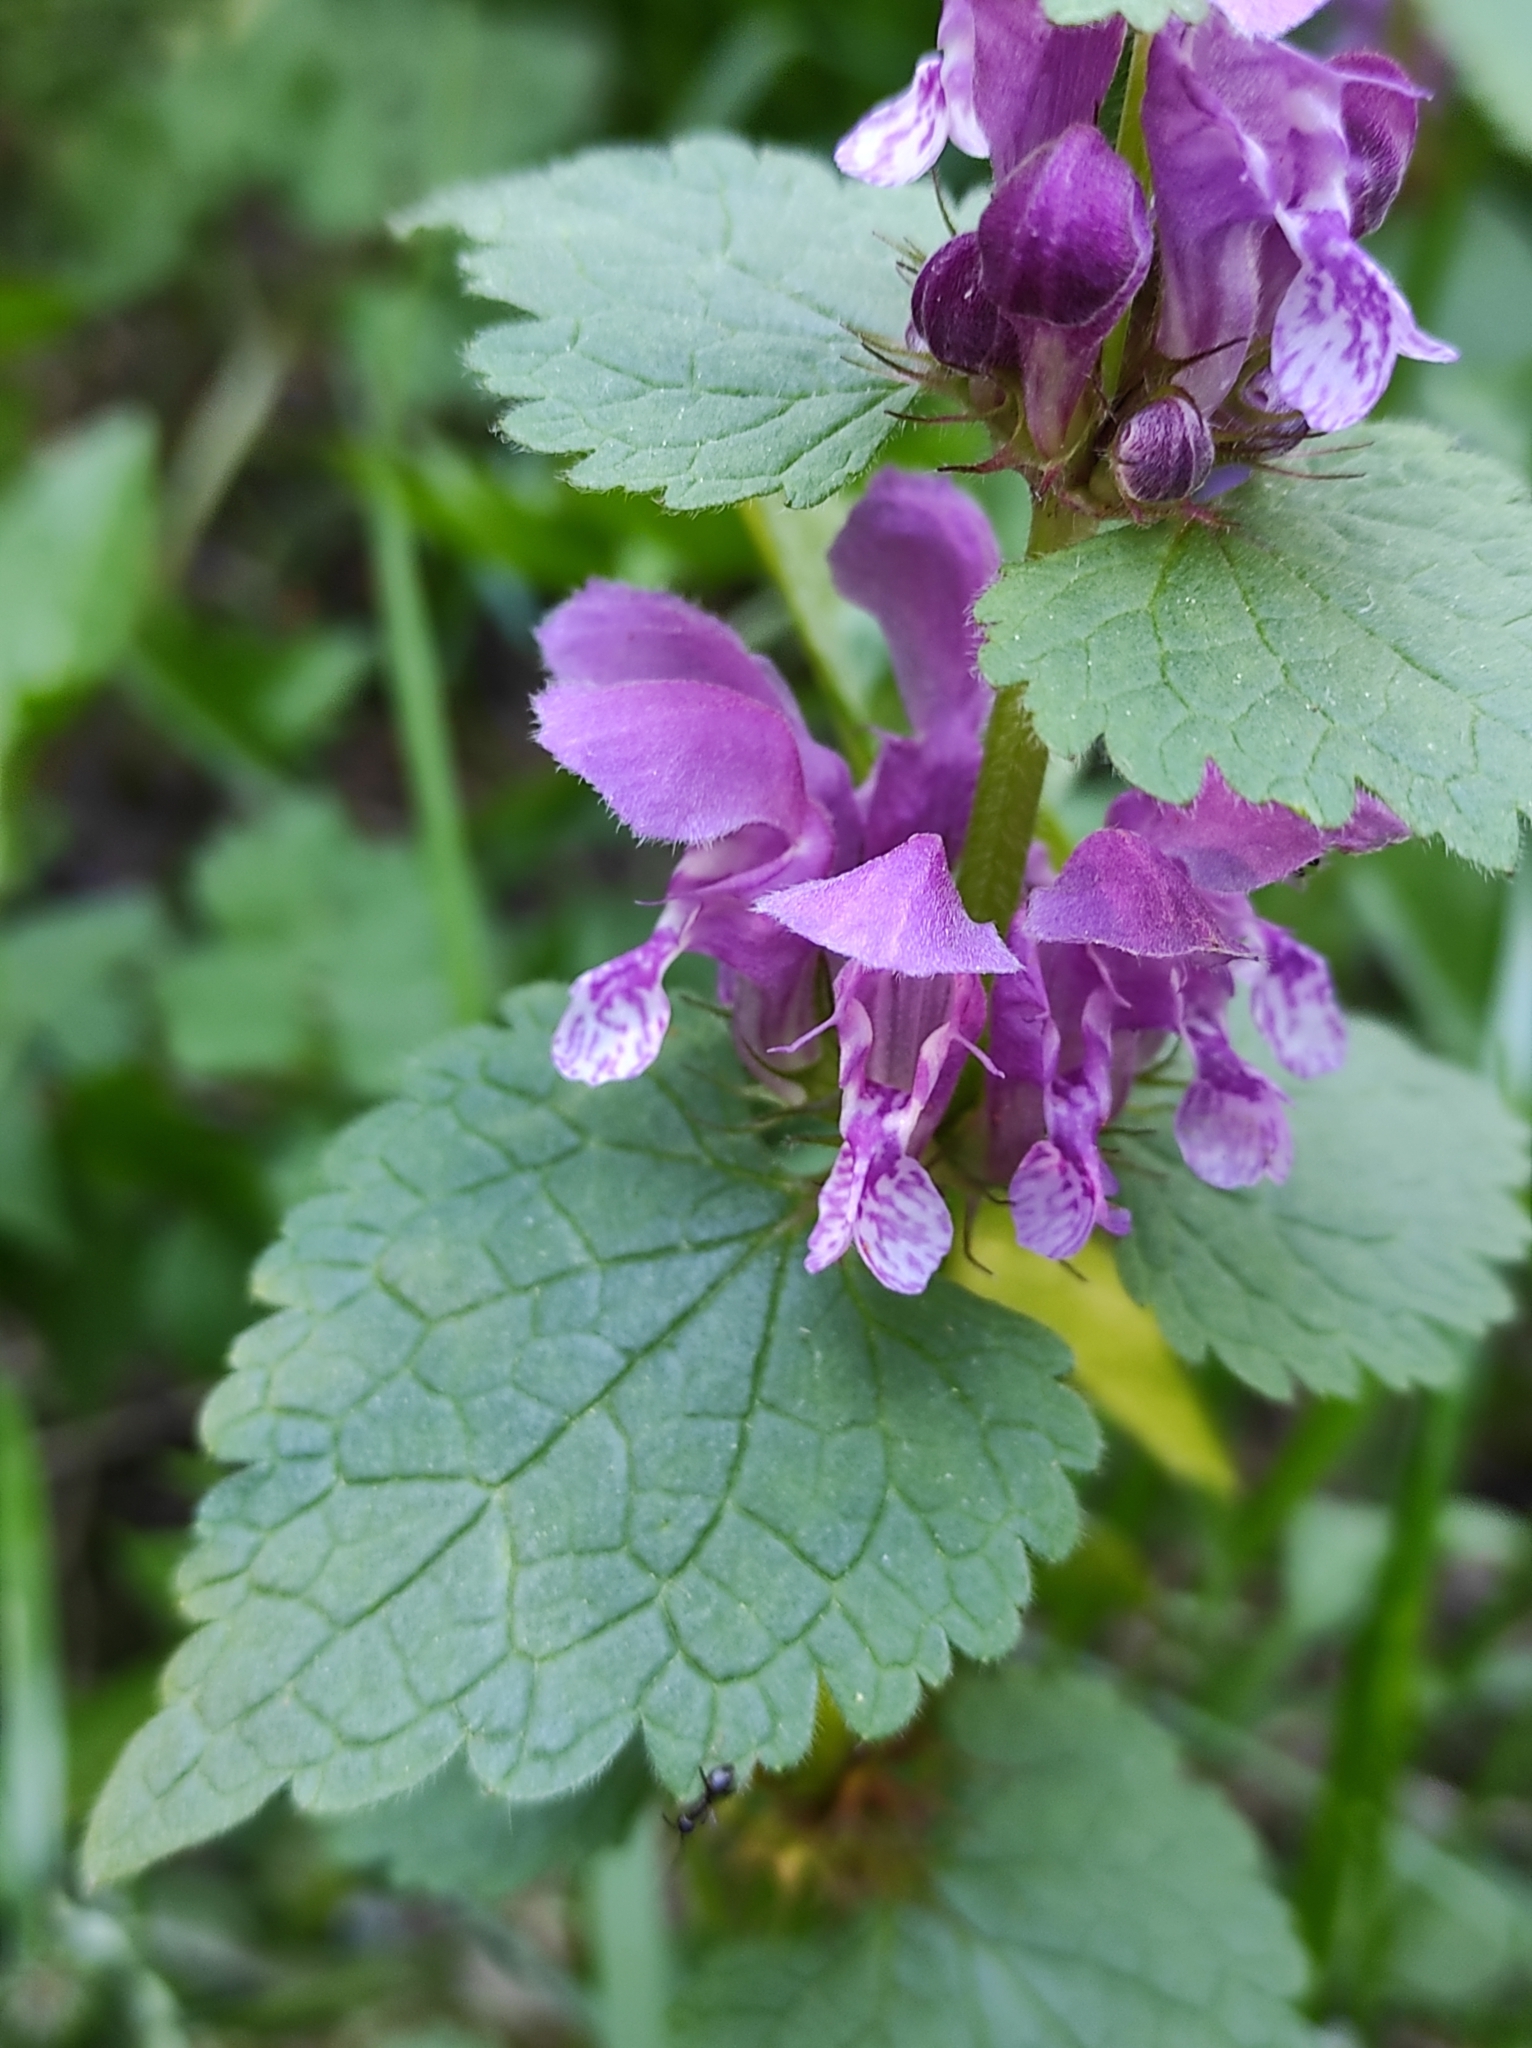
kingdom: Plantae
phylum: Tracheophyta
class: Magnoliopsida
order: Lamiales
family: Lamiaceae
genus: Lamium
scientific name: Lamium maculatum
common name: Spotted dead-nettle
